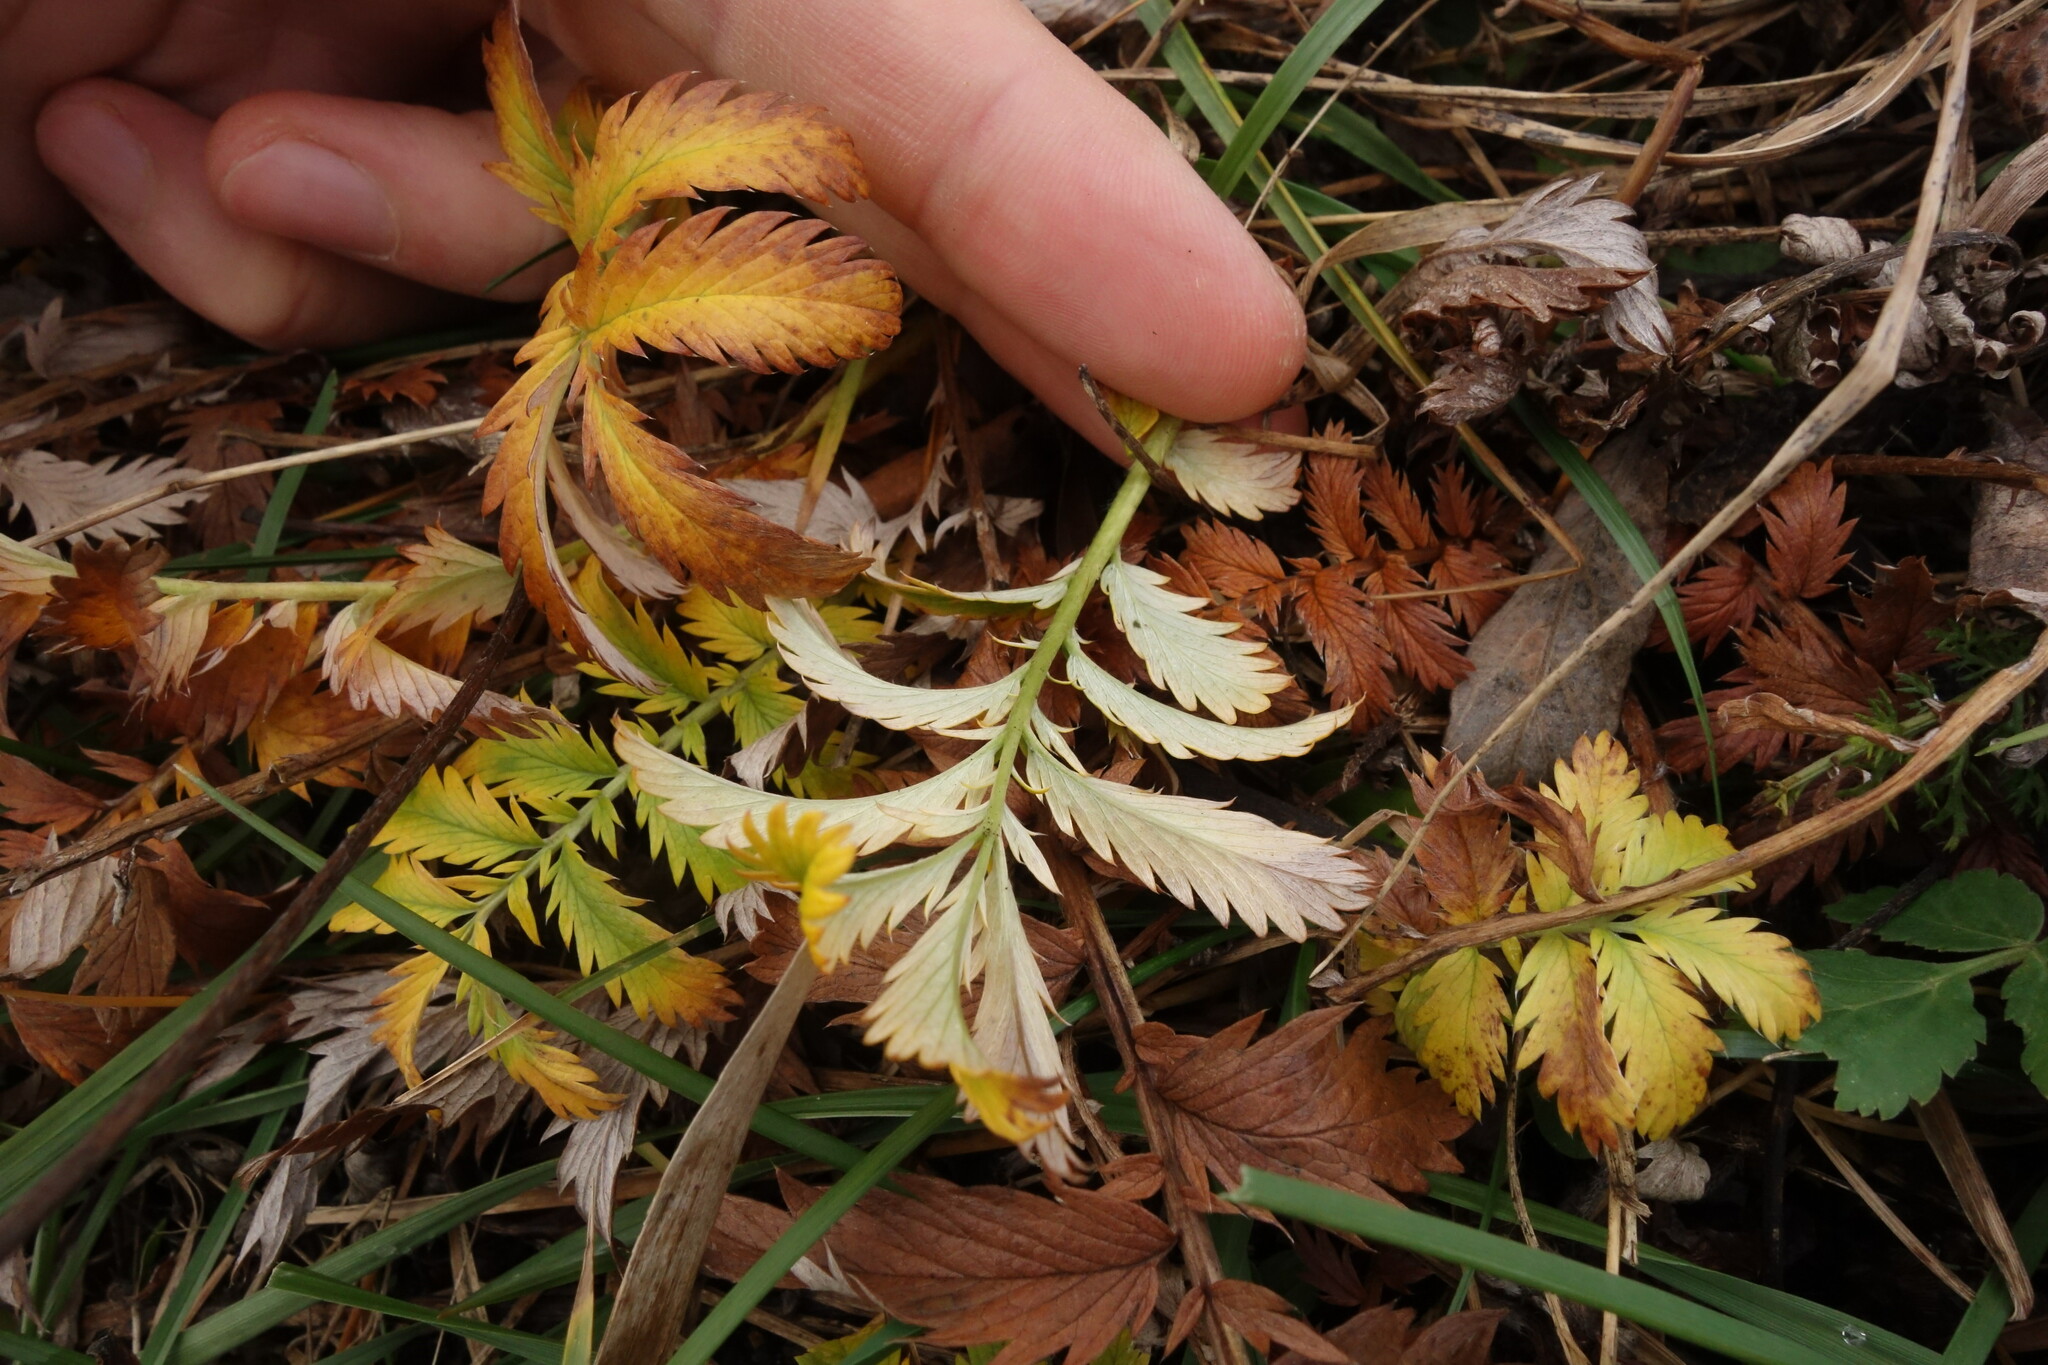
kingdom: Plantae
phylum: Tracheophyta
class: Magnoliopsida
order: Rosales
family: Rosaceae
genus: Argentina
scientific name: Argentina anserina
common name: Common silverweed
